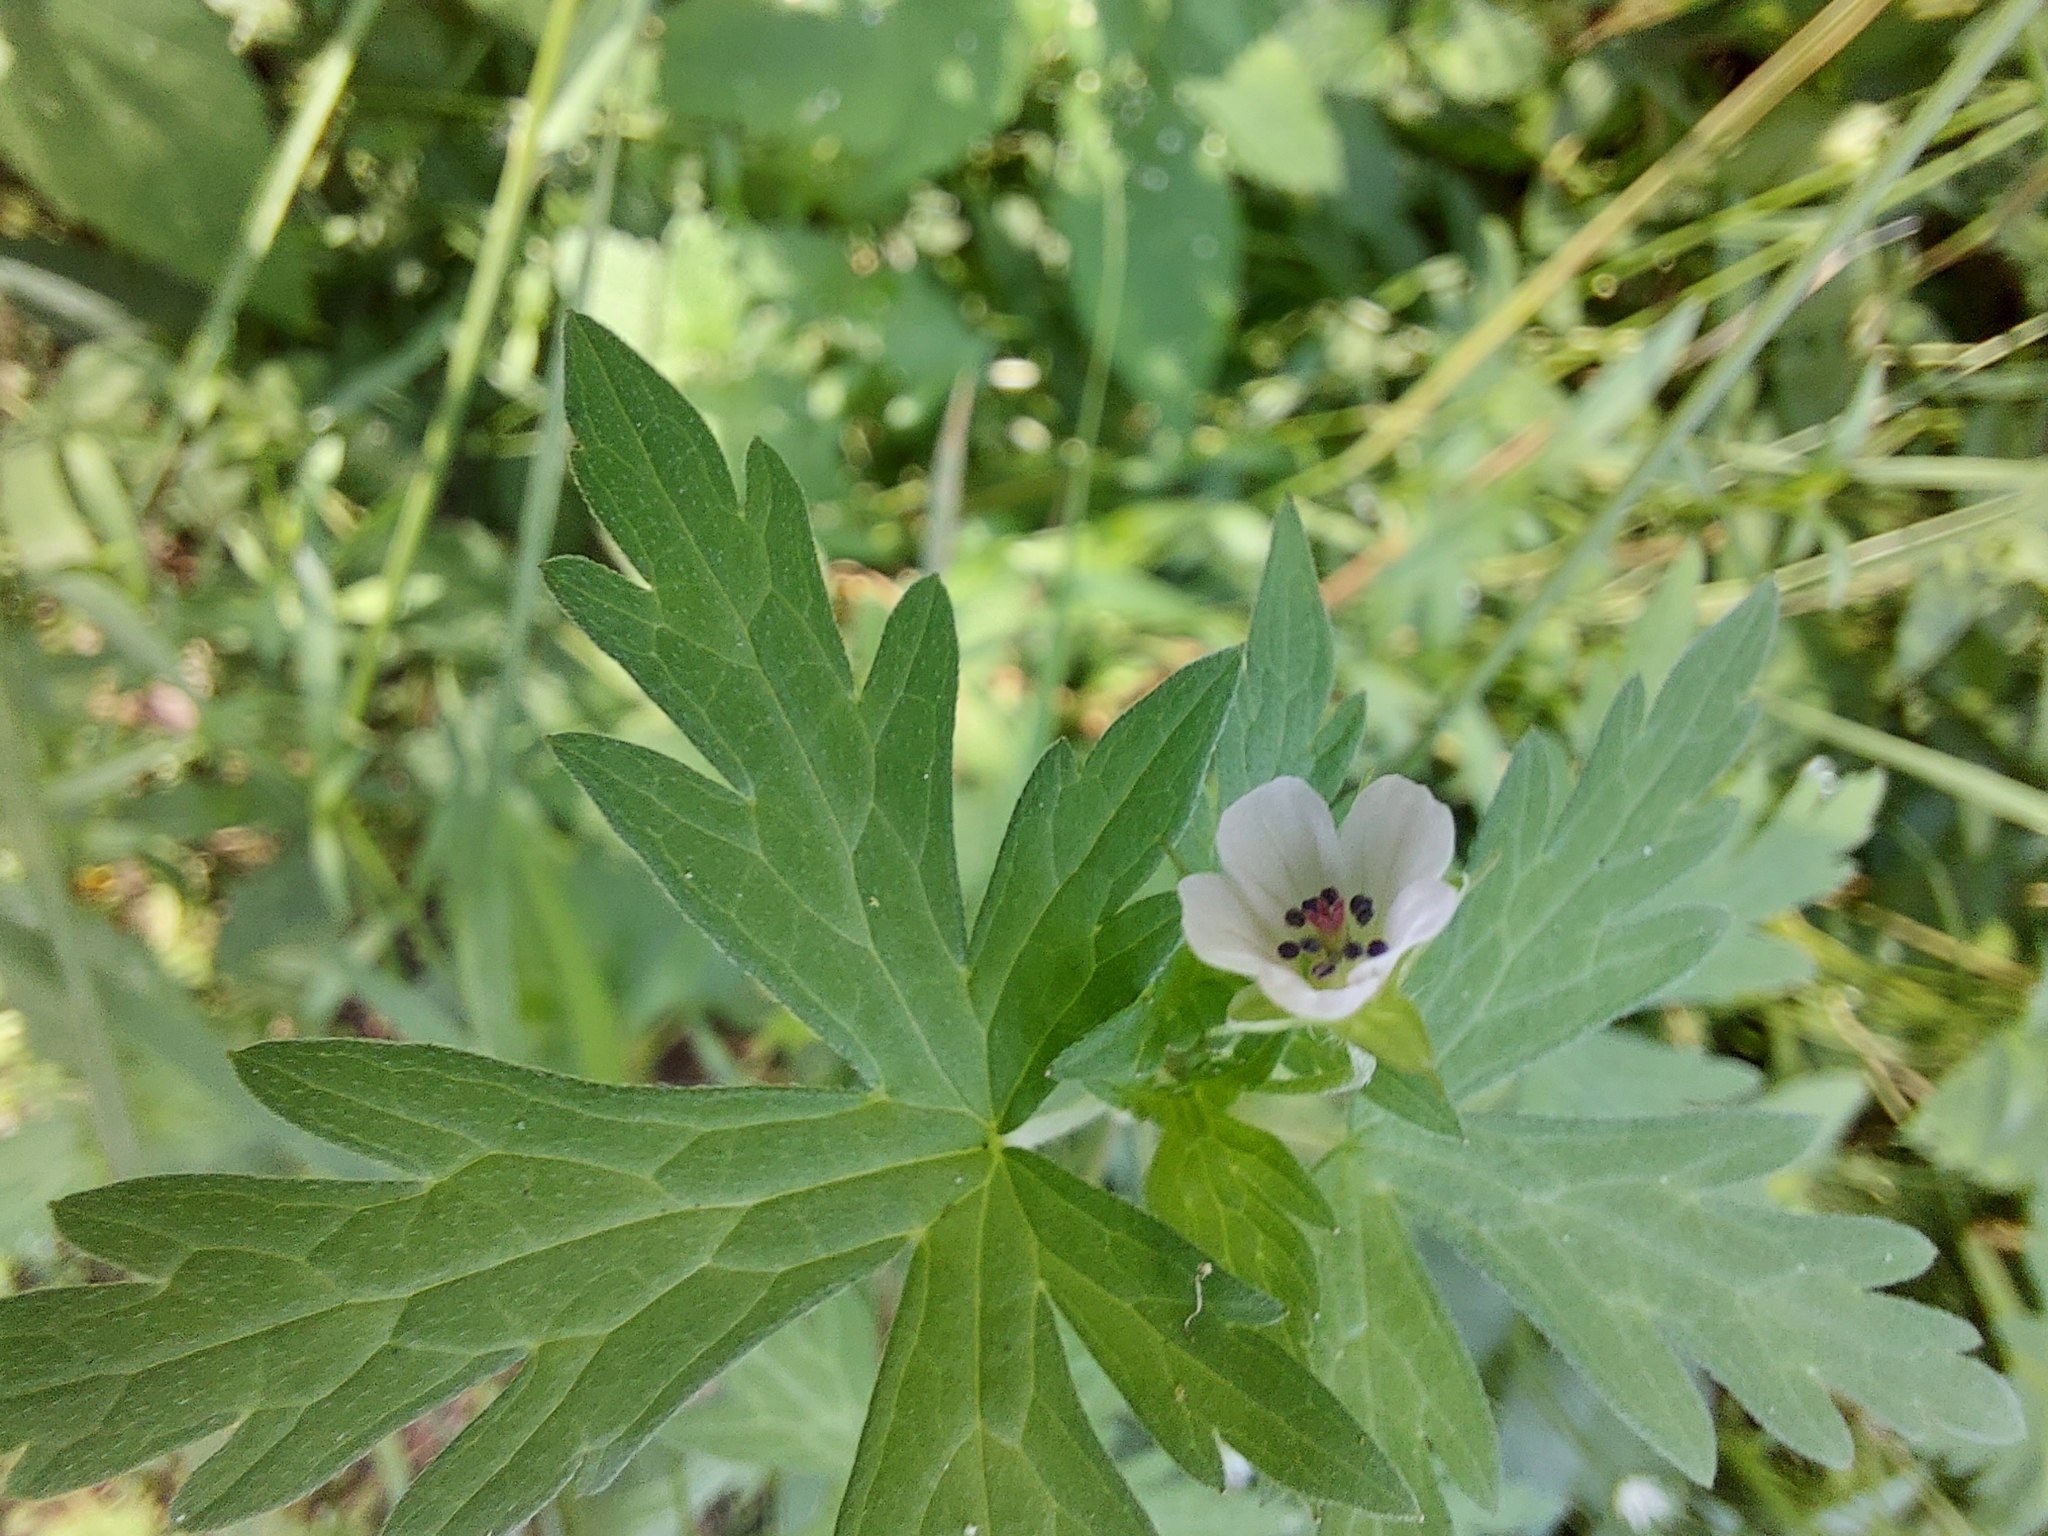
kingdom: Plantae
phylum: Tracheophyta
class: Magnoliopsida
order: Geraniales
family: Geraniaceae
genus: Geranium
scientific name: Geranium sibiricum
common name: Siberian crane's-bill
